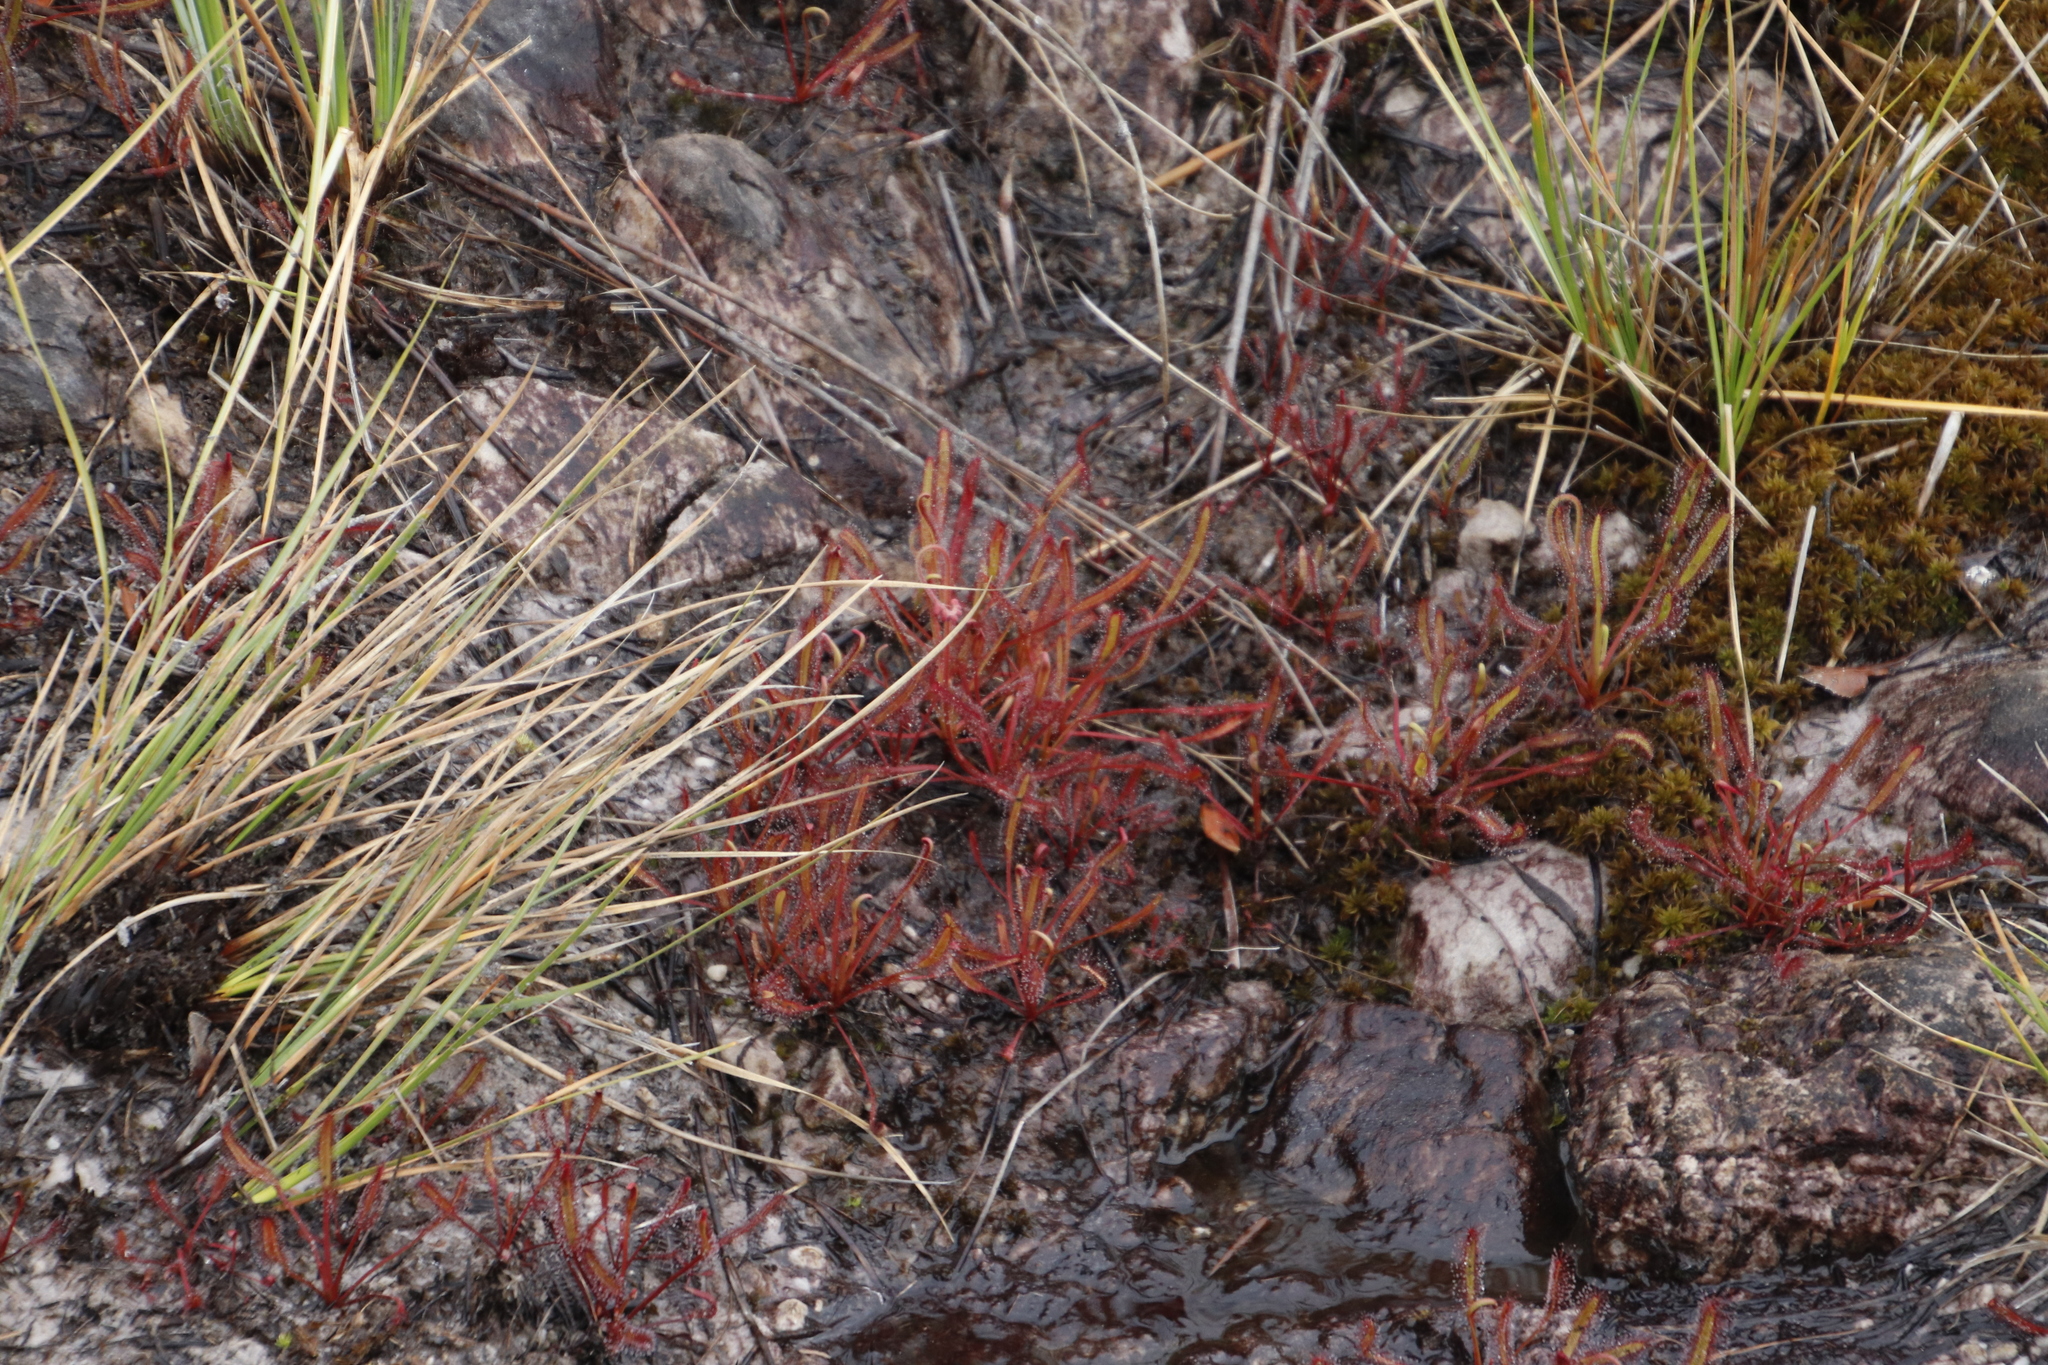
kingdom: Plantae
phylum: Tracheophyta
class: Magnoliopsida
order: Caryophyllales
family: Droseraceae
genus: Drosera
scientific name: Drosera capensis
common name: Cape sundew
